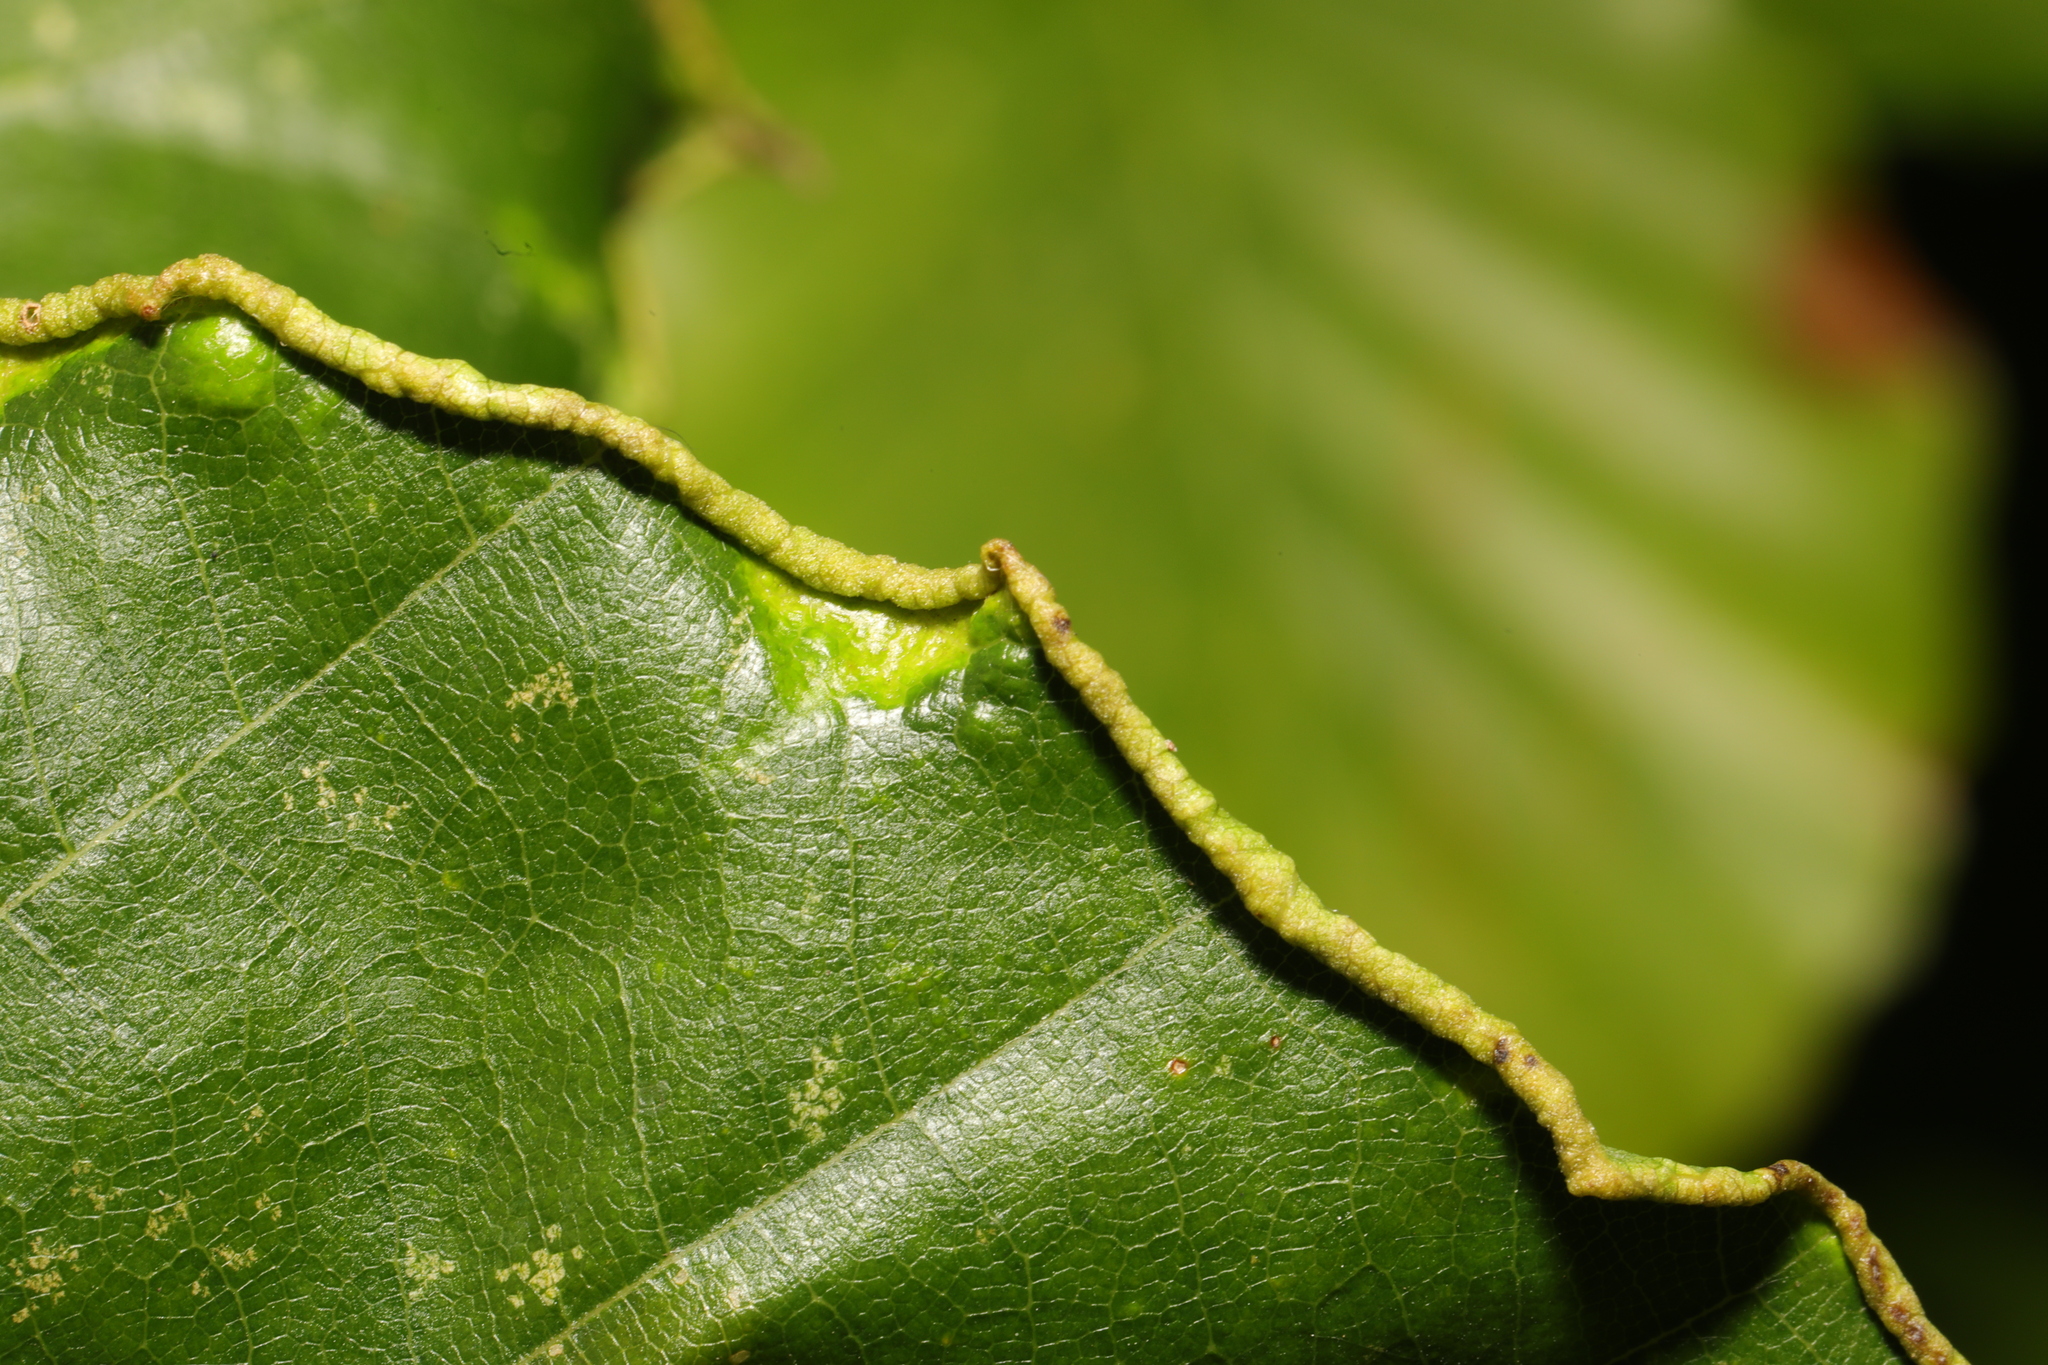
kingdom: Animalia
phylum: Arthropoda
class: Arachnida
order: Trombidiformes
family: Eriophyidae
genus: Acalitus
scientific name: Acalitus stenaspis
